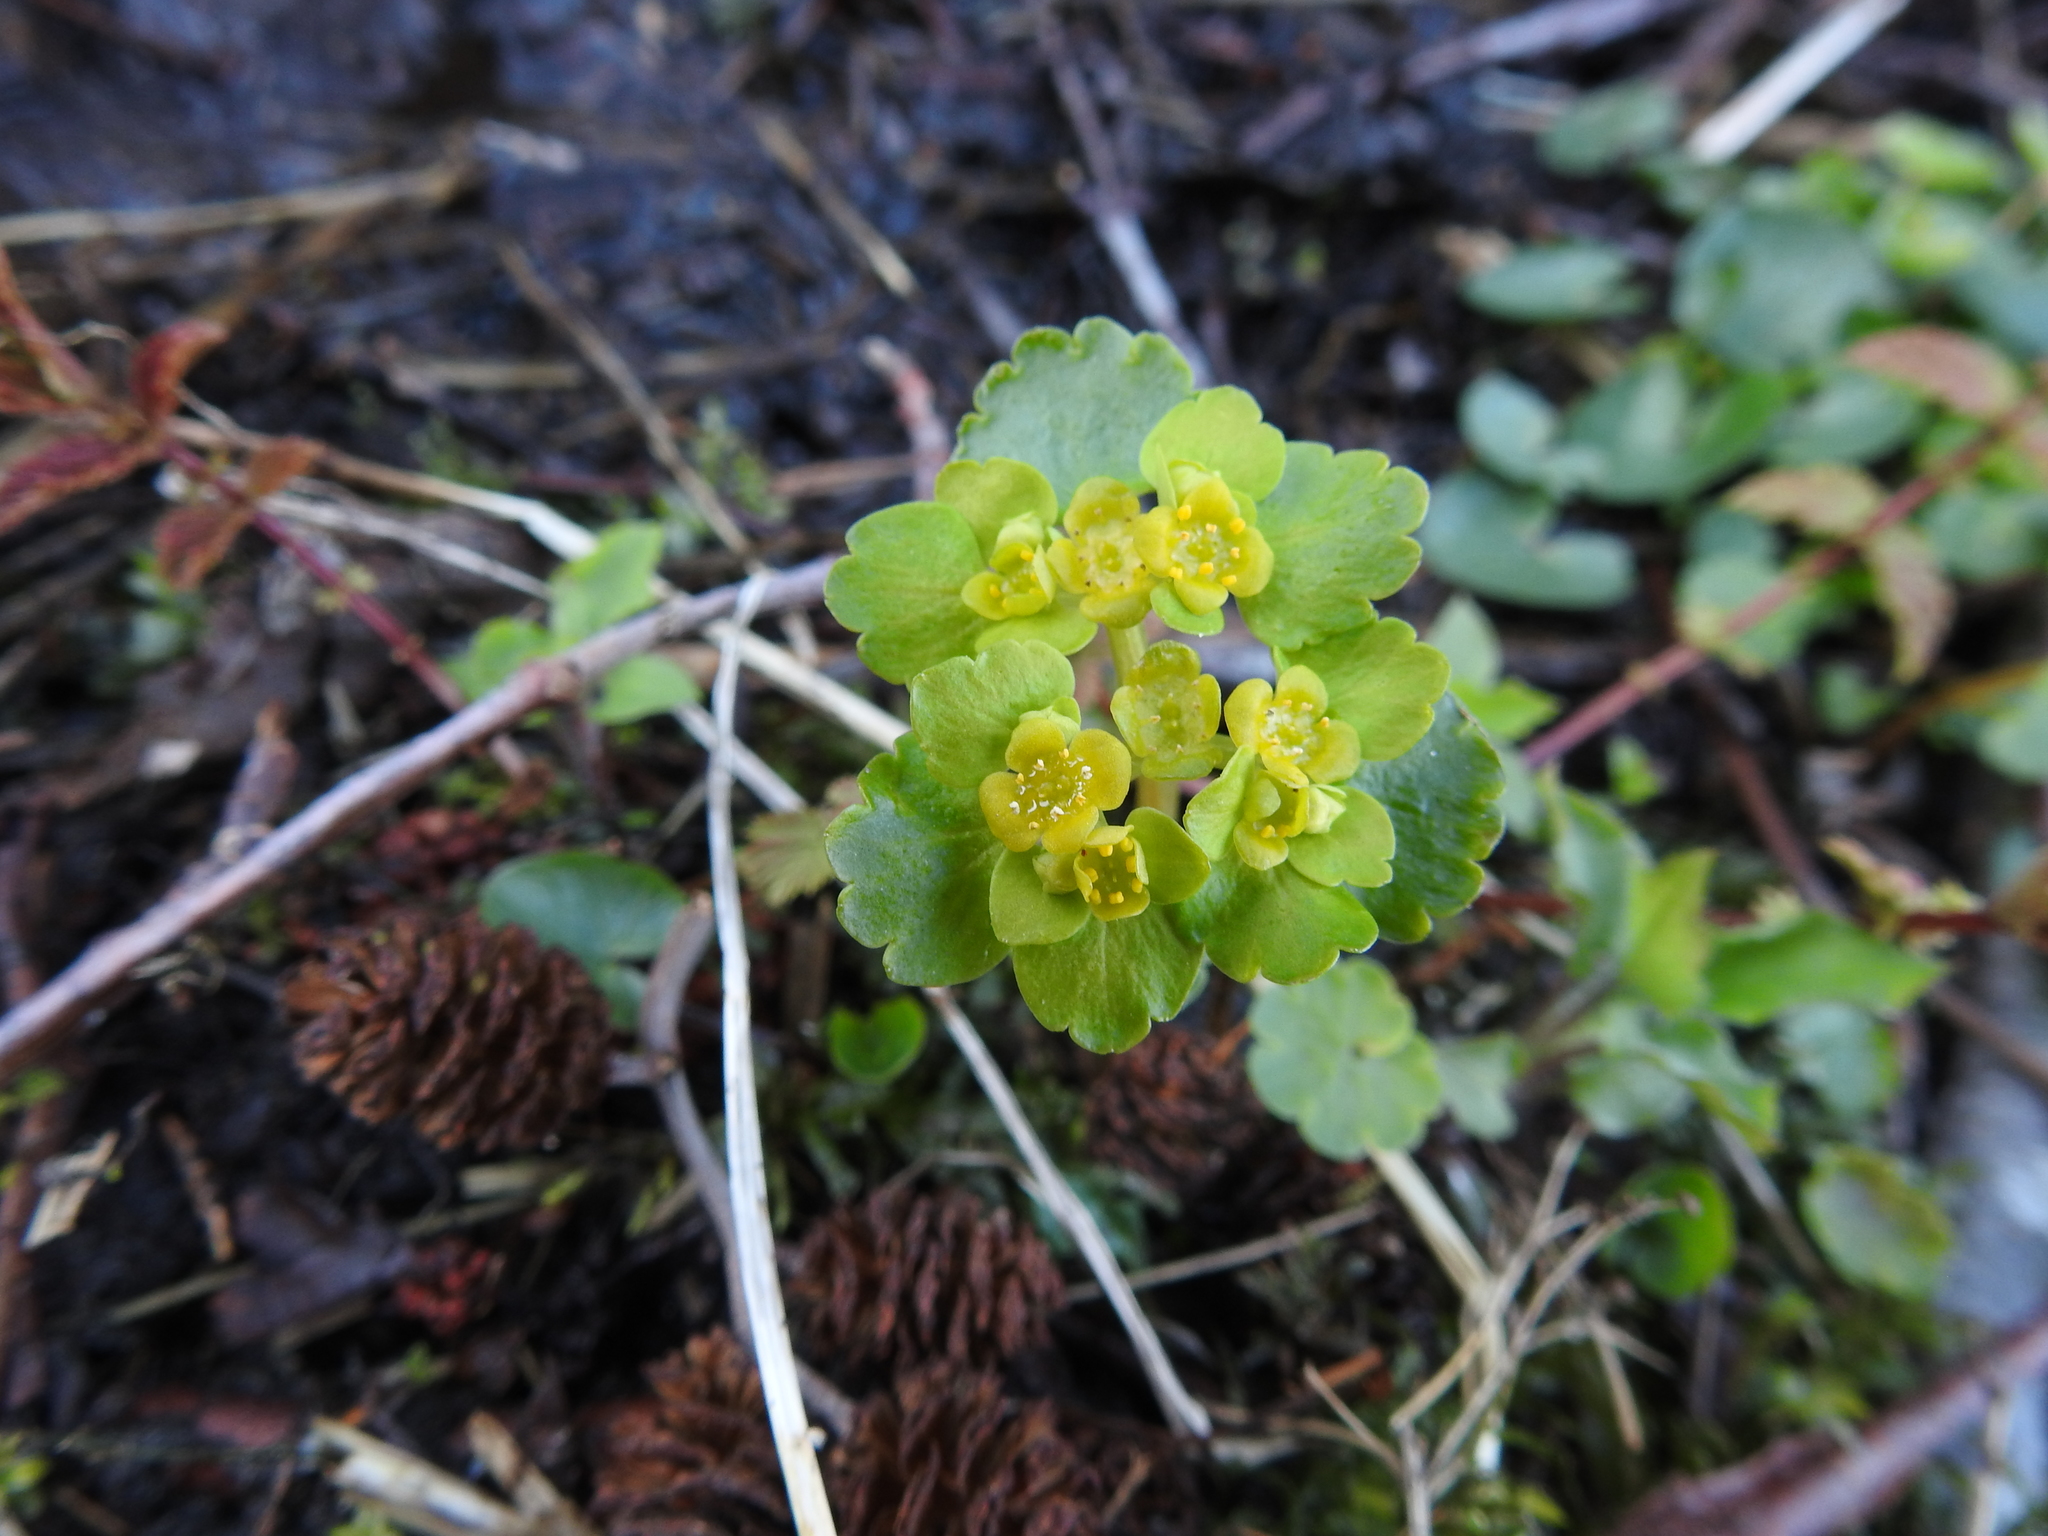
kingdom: Plantae
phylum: Tracheophyta
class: Magnoliopsida
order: Saxifragales
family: Saxifragaceae
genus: Chrysosplenium
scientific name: Chrysosplenium alternifolium
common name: Alternate-leaved golden-saxifrage
